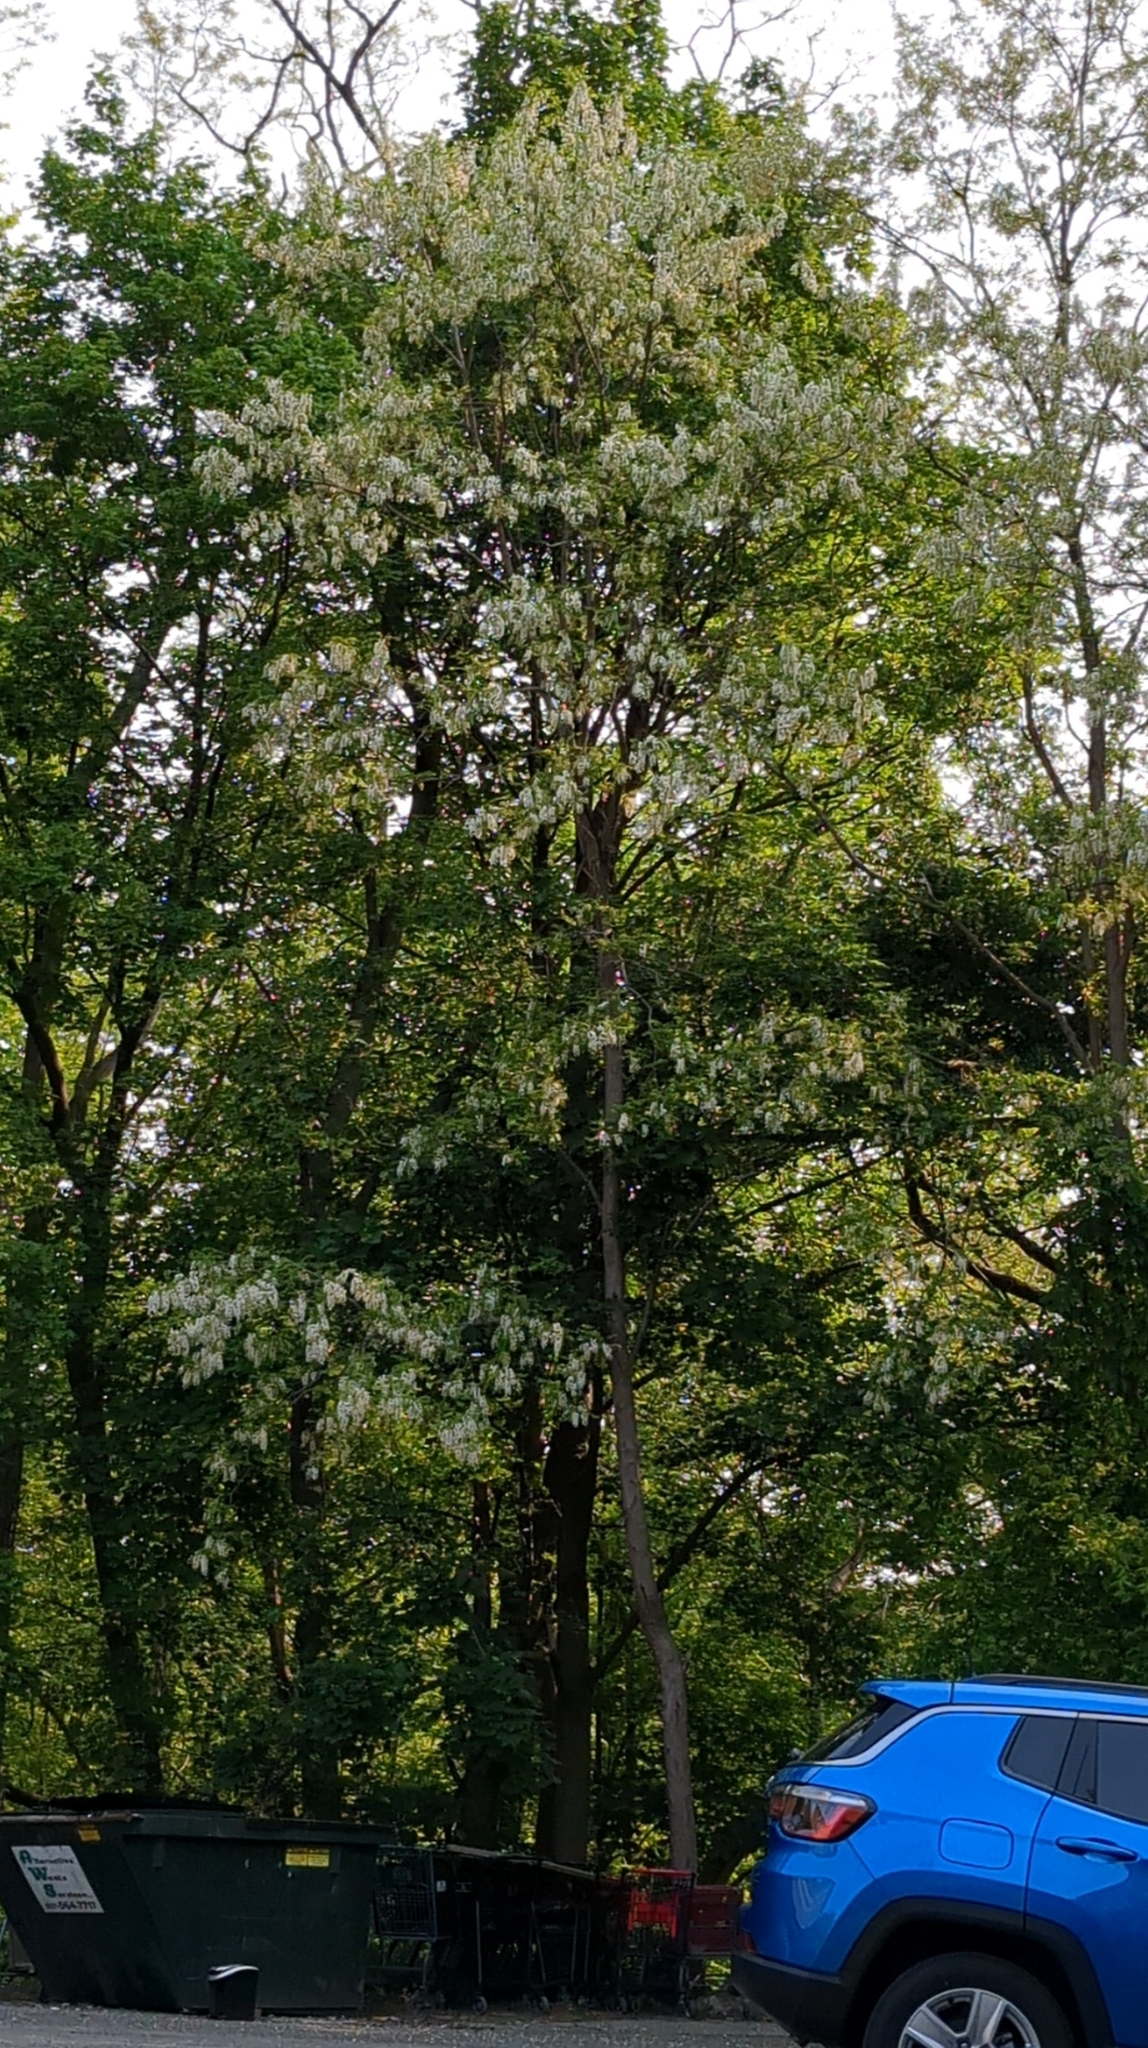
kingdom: Plantae
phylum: Tracheophyta
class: Magnoliopsida
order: Fabales
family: Fabaceae
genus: Robinia
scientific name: Robinia pseudoacacia
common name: Black locust
